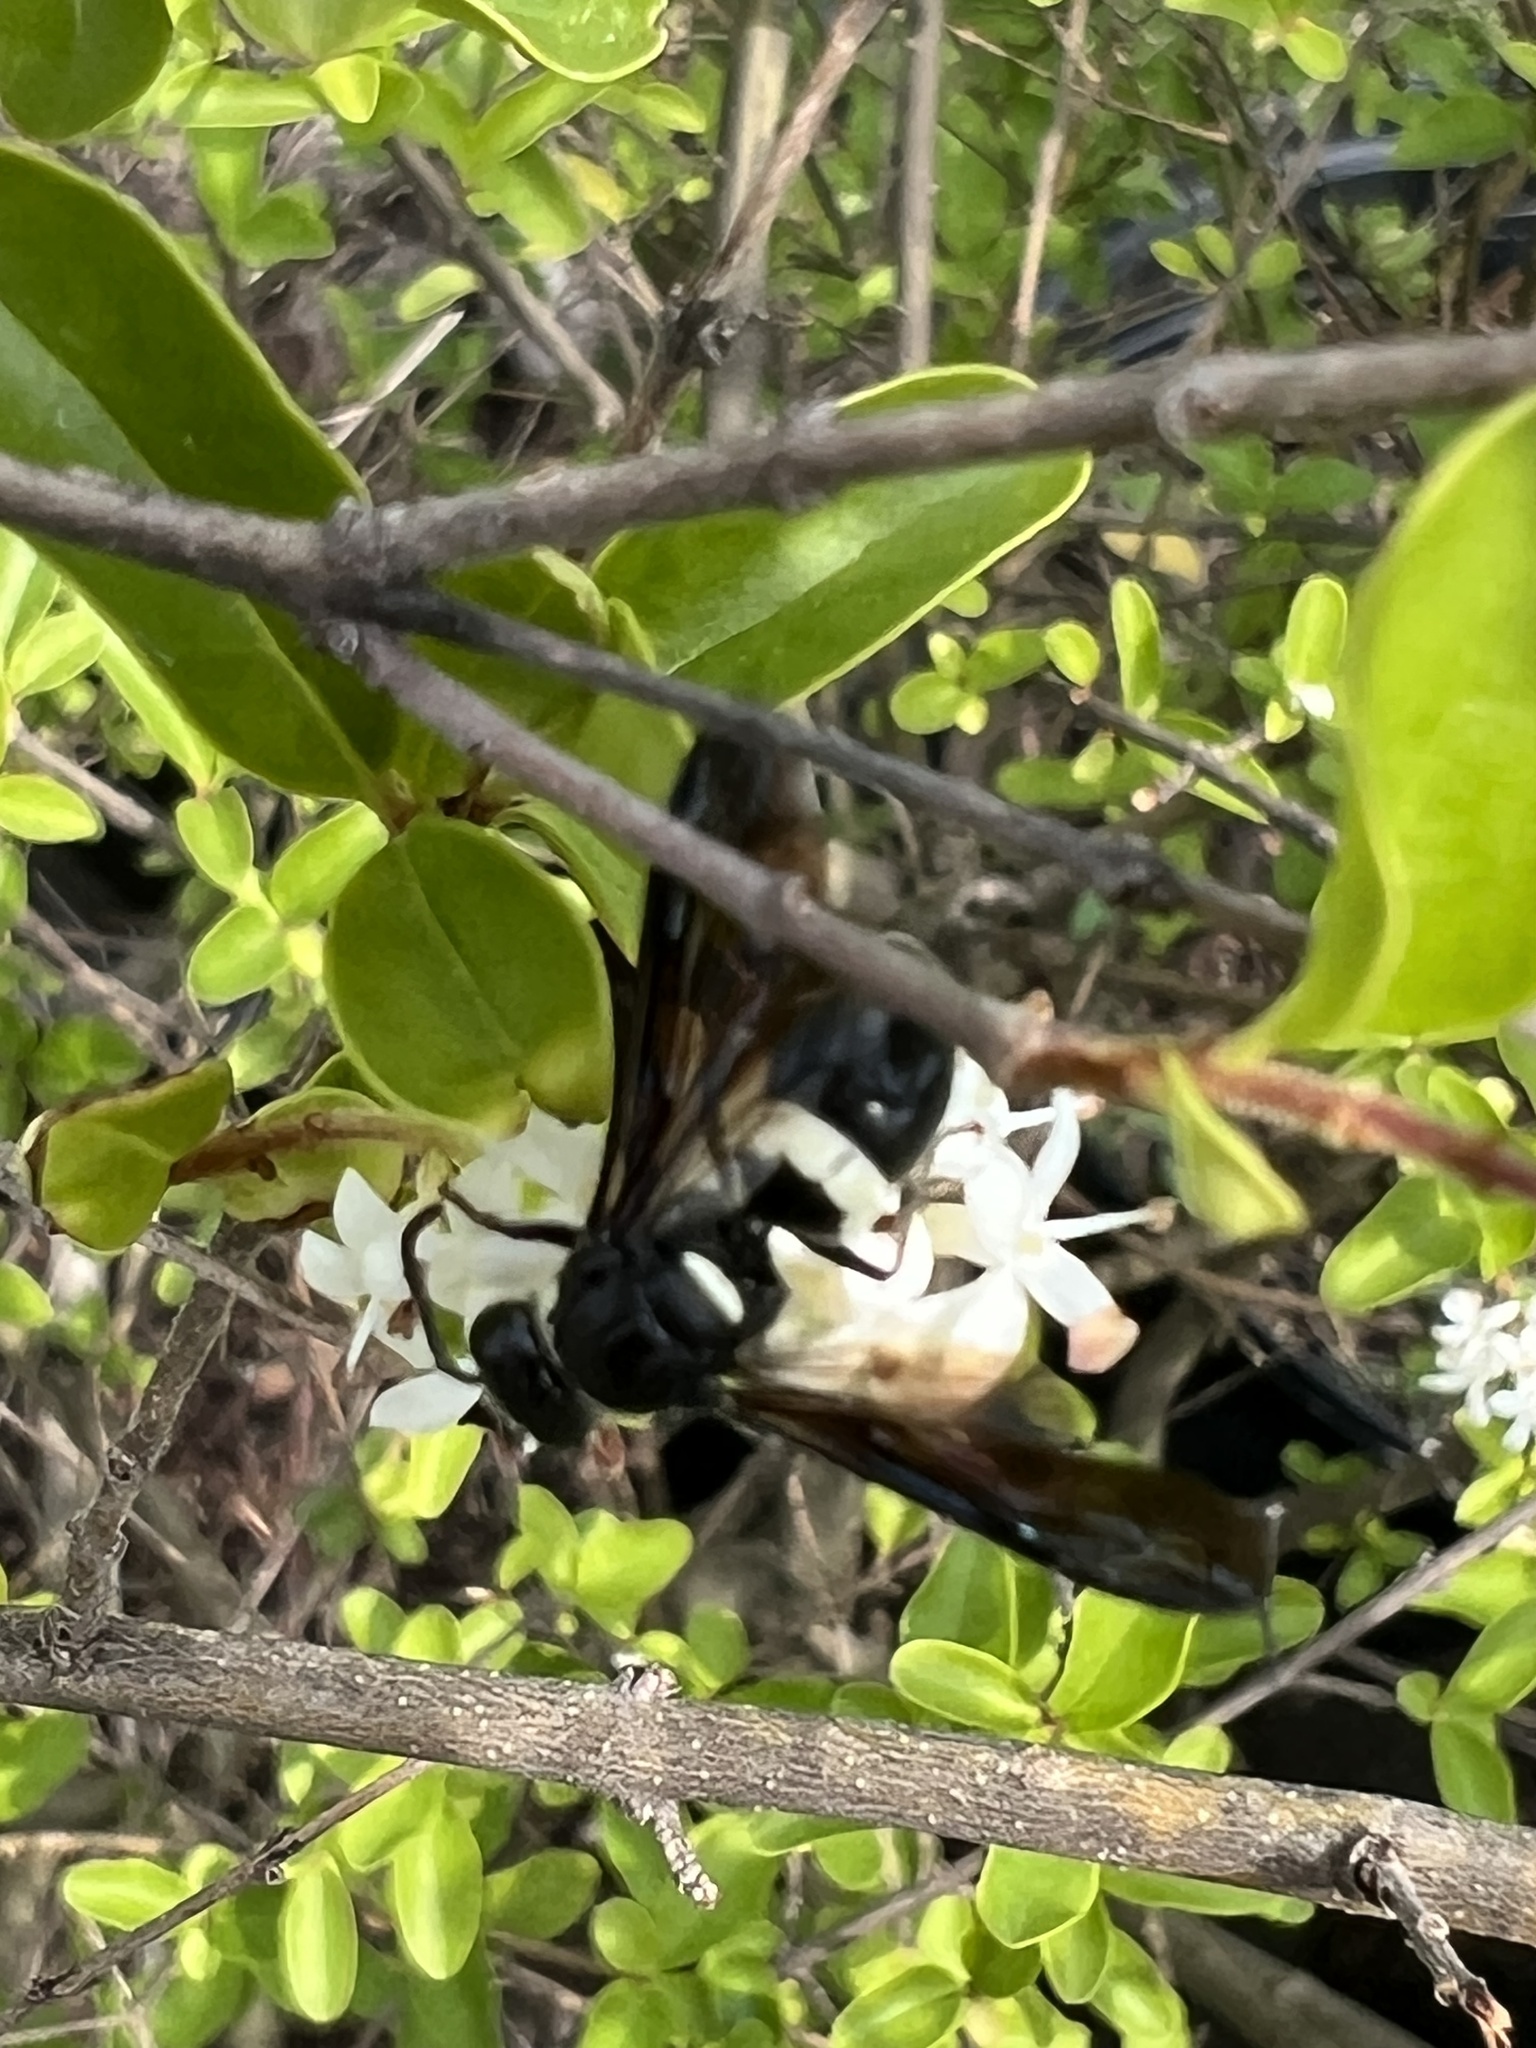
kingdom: Animalia
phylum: Arthropoda
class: Insecta
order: Hymenoptera
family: Eumenidae
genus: Monobia
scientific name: Monobia quadridens
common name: Four-toothed mason wasp
